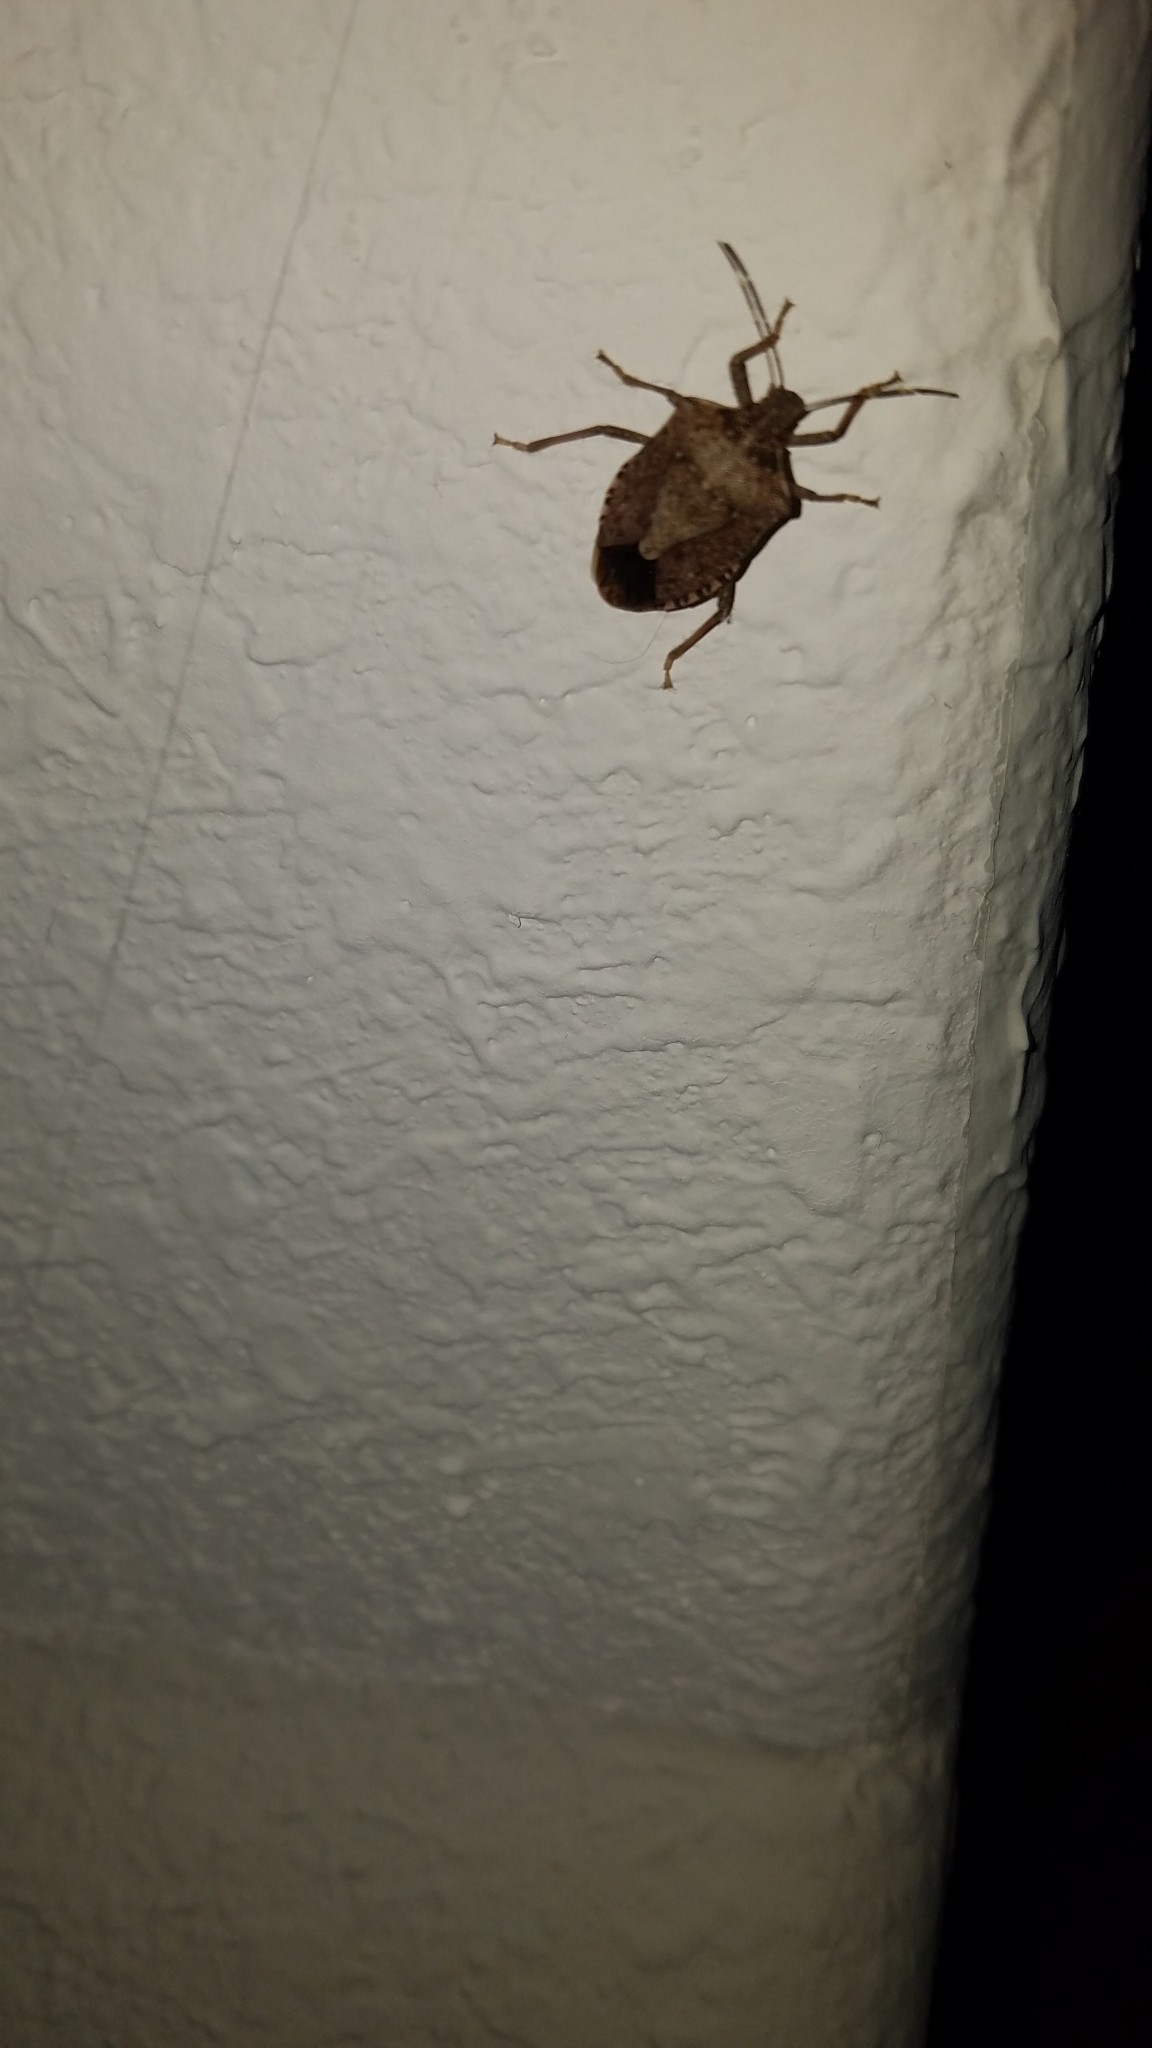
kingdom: Animalia
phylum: Arthropoda
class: Insecta
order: Hemiptera
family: Pentatomidae
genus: Halyomorpha
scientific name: Halyomorpha halys
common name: Brown marmorated stink bug
